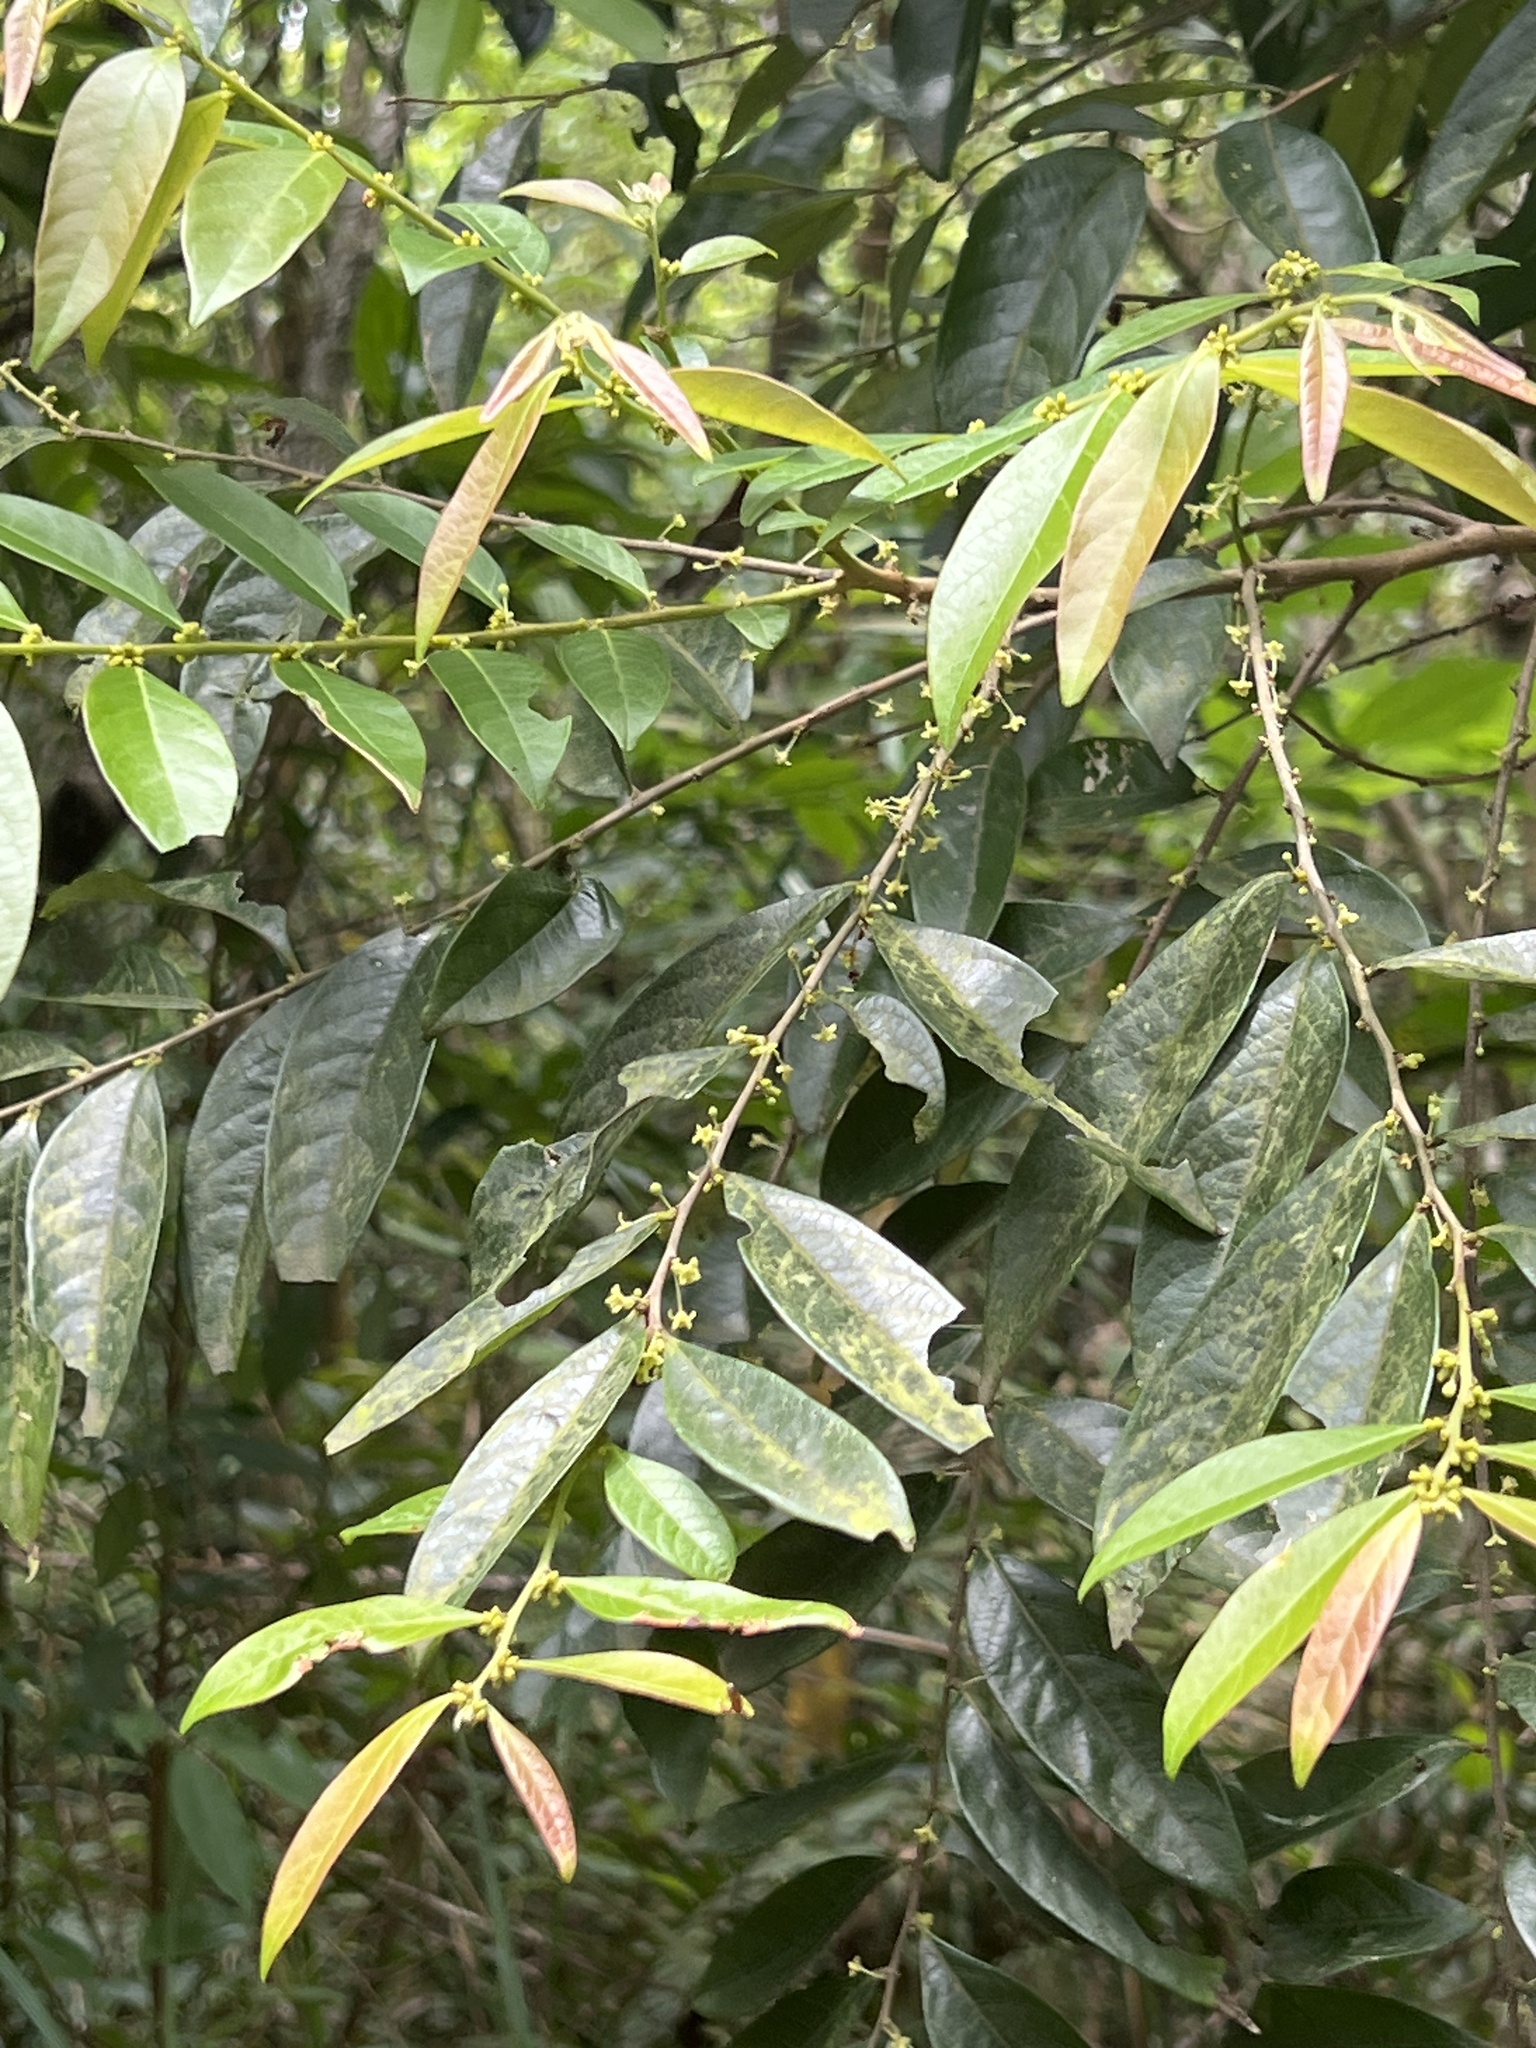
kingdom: Plantae
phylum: Tracheophyta
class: Magnoliopsida
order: Malpighiales
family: Phyllanthaceae
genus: Glochidion
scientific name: Glochidion acuminatum
